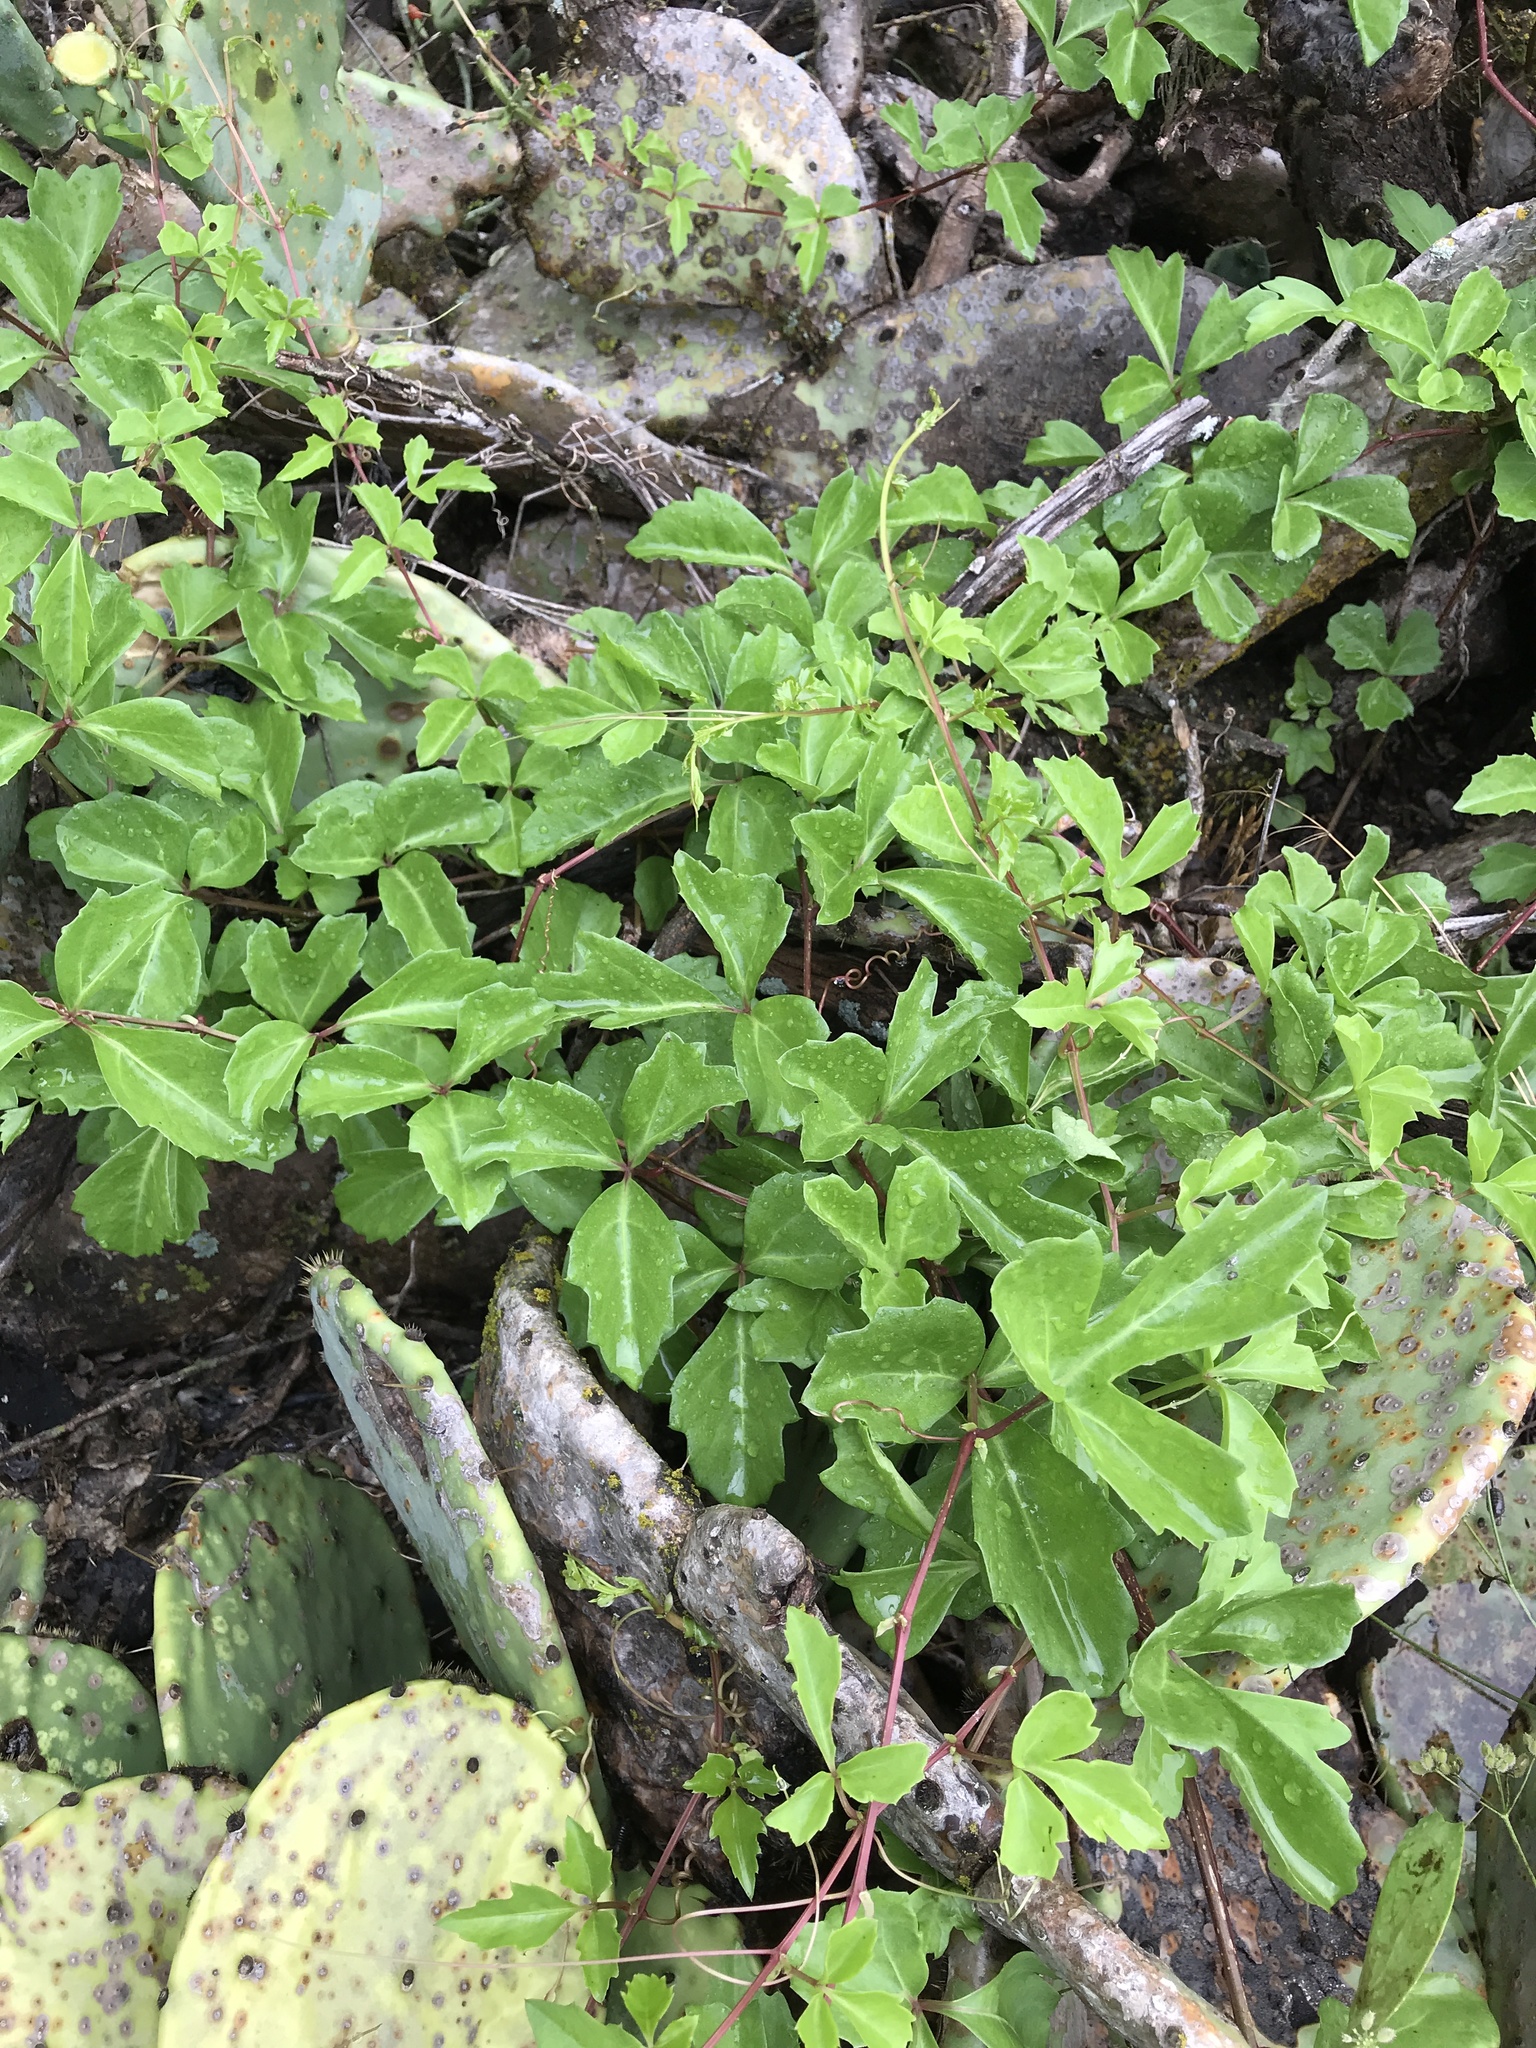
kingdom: Plantae
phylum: Tracheophyta
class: Magnoliopsida
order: Vitales
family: Vitaceae
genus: Cissus
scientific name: Cissus trifoliata
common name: Vine-sorrel
